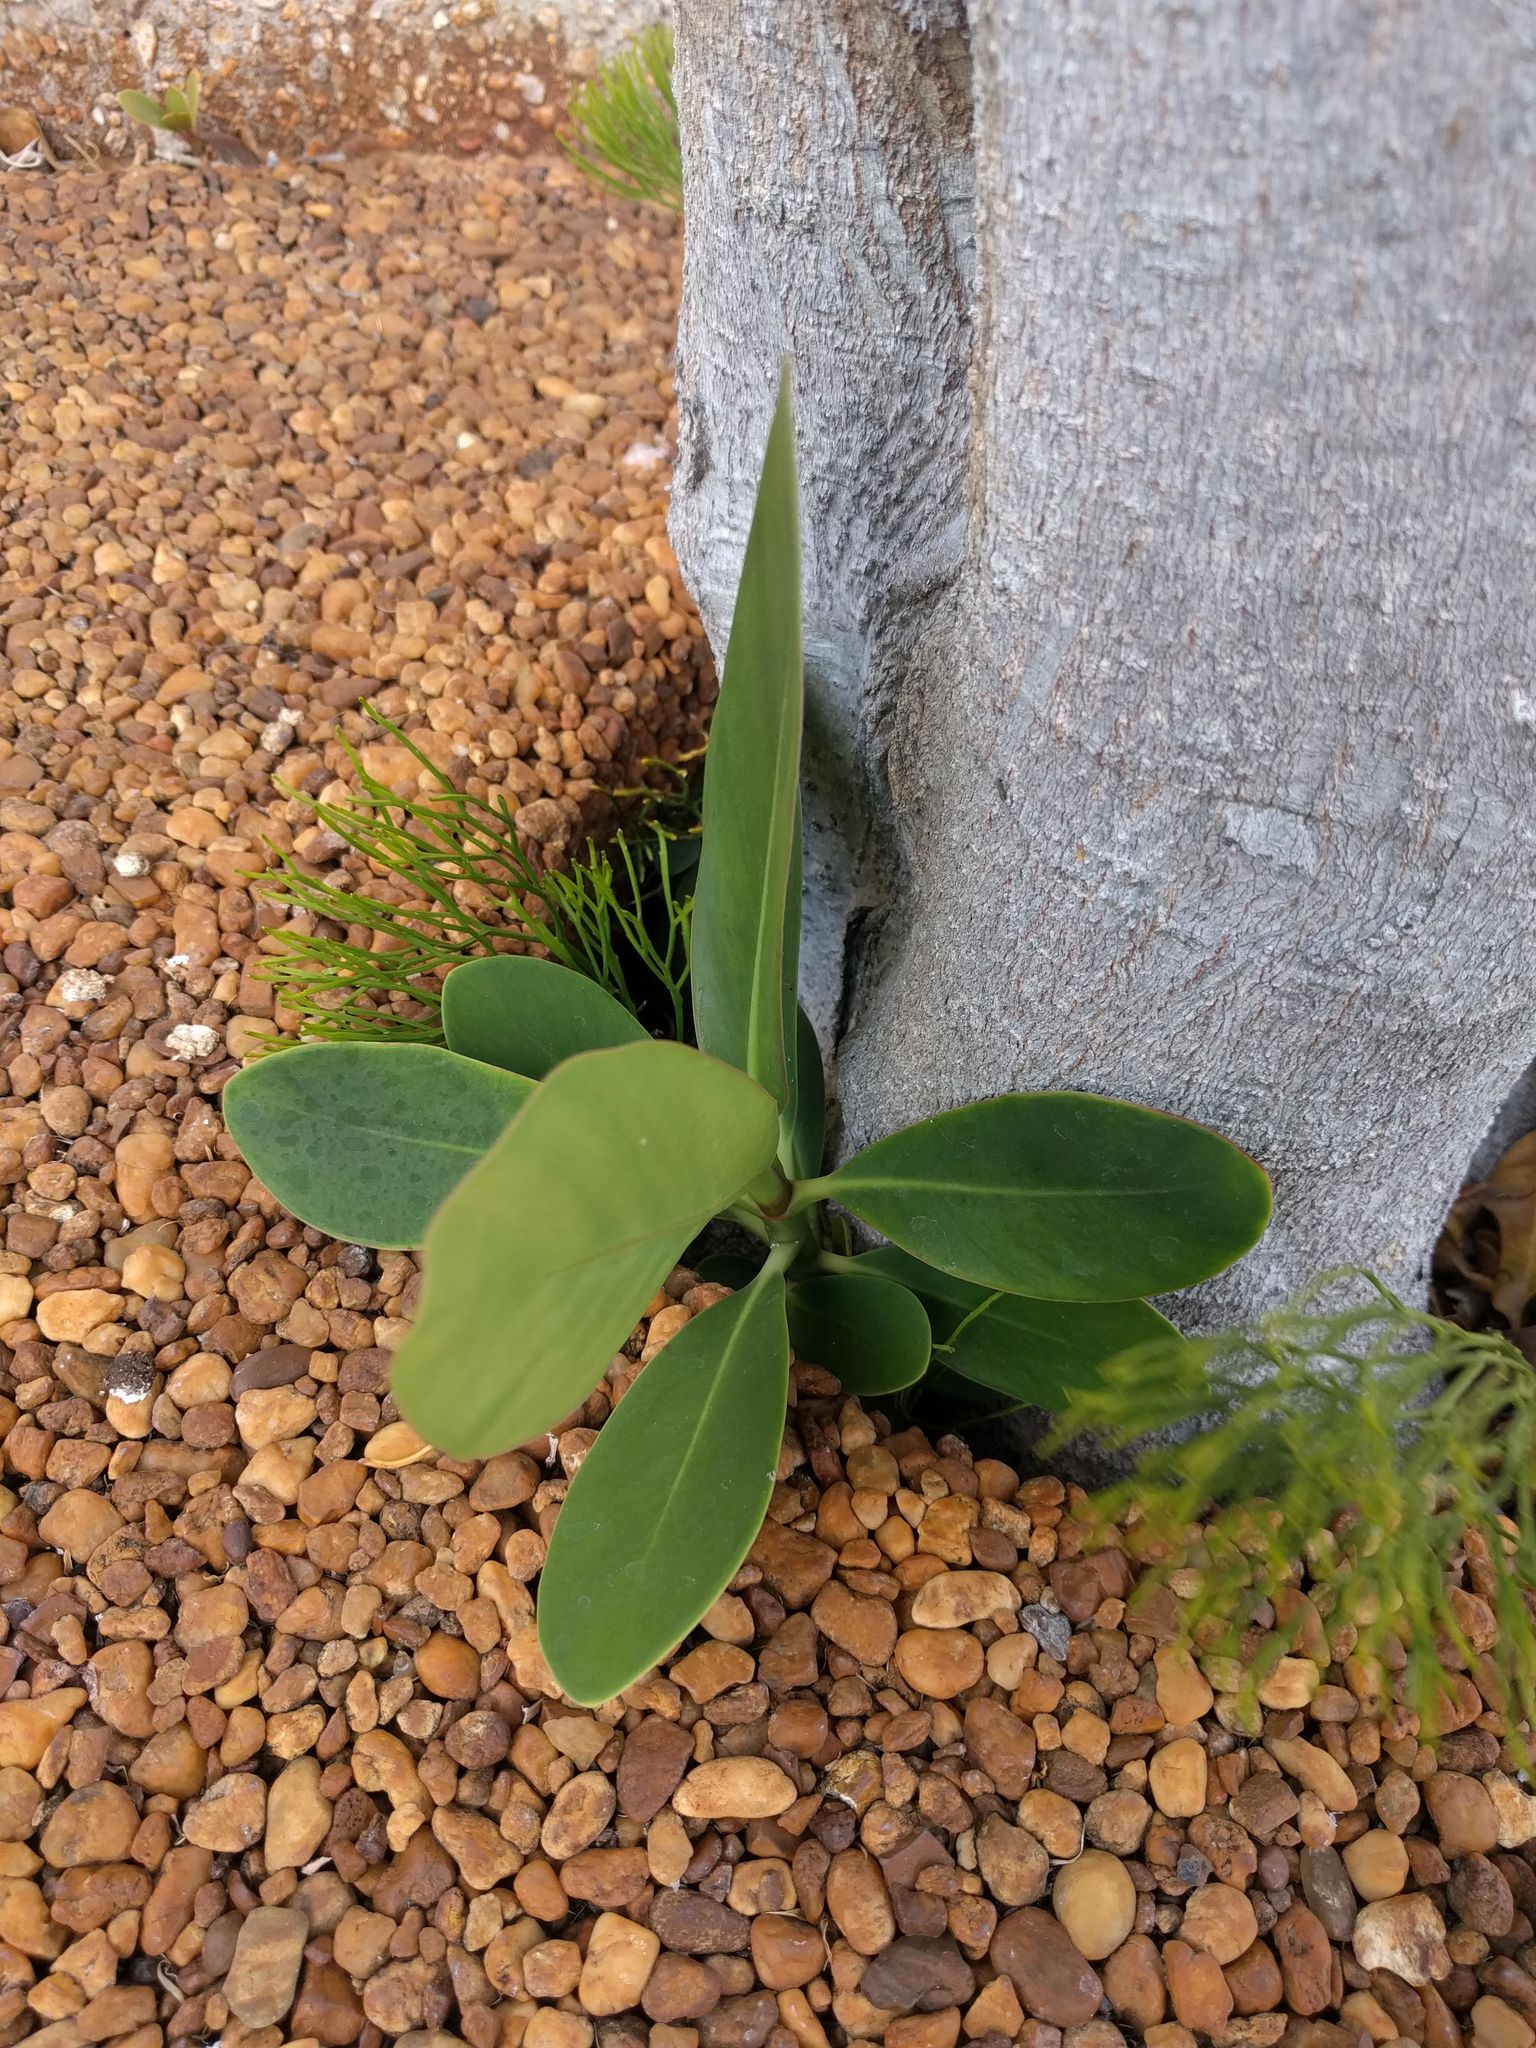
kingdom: Plantae
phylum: Tracheophyta
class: Magnoliopsida
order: Malpighiales
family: Clusiaceae
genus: Clusia
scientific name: Clusia rosea
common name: Scotch attorney
